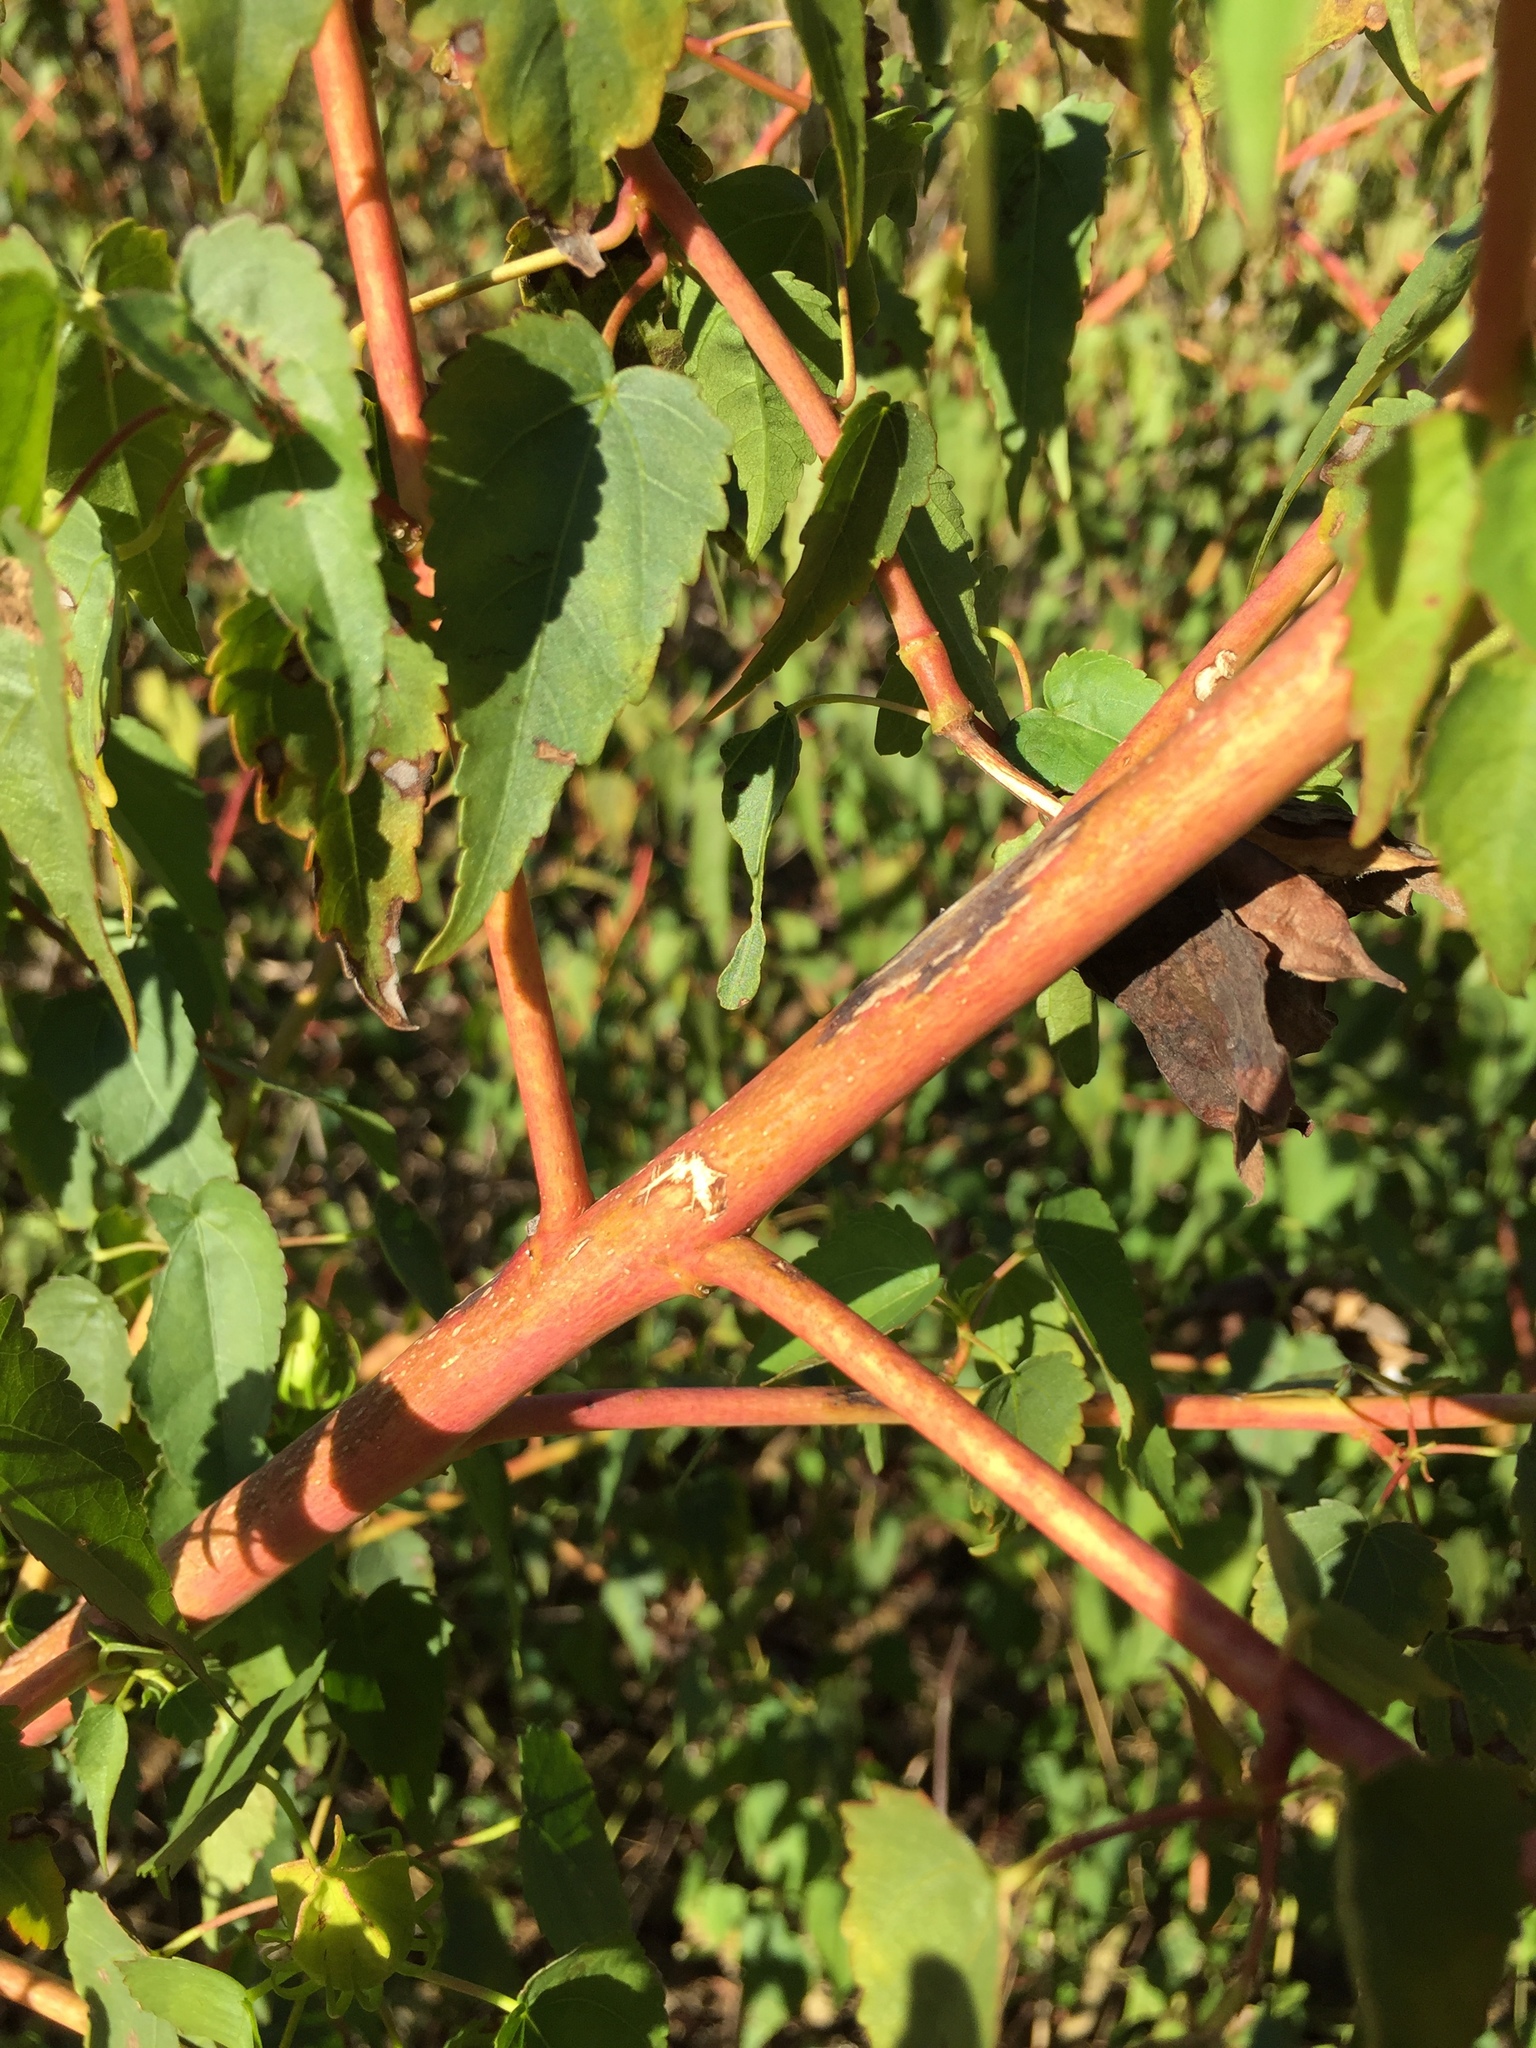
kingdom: Plantae
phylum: Tracheophyta
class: Magnoliopsida
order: Malvales
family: Malvaceae
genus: Hibiscus
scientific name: Hibiscus laevis
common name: Scarlet rose-mallow
